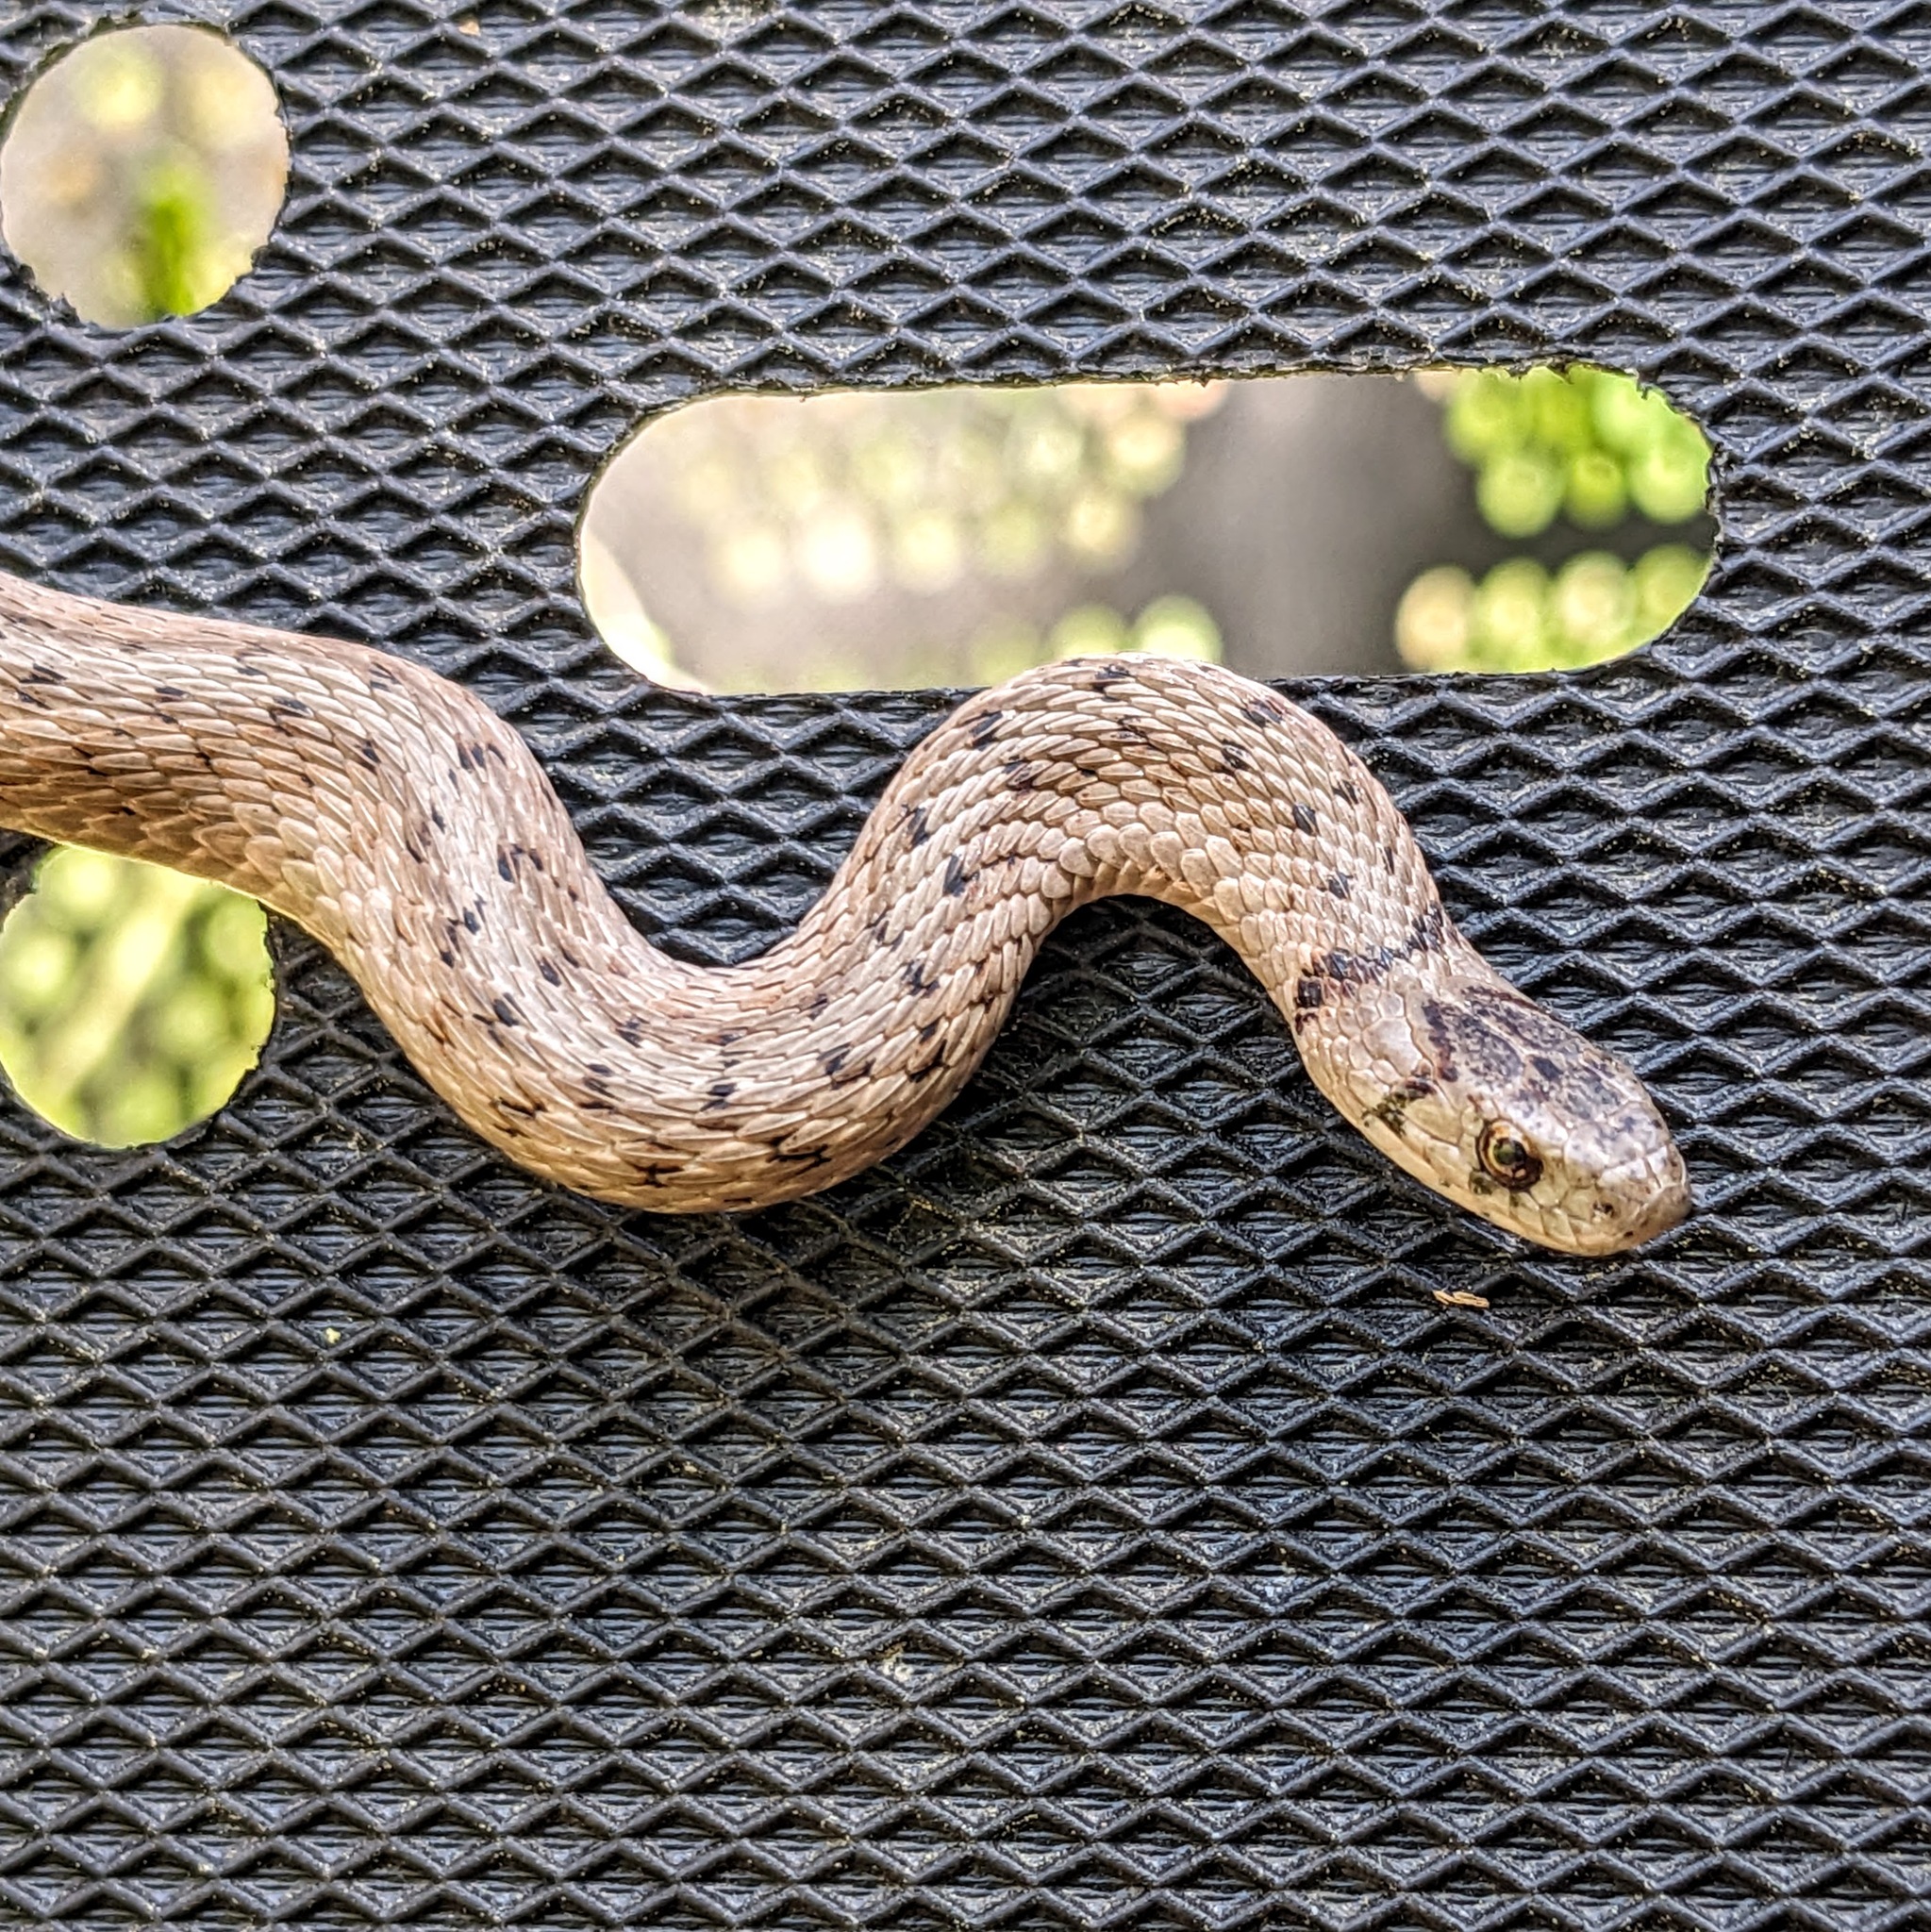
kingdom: Animalia
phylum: Chordata
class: Squamata
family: Colubridae
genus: Storeria
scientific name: Storeria dekayi
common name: (dekay’s) brown snake
